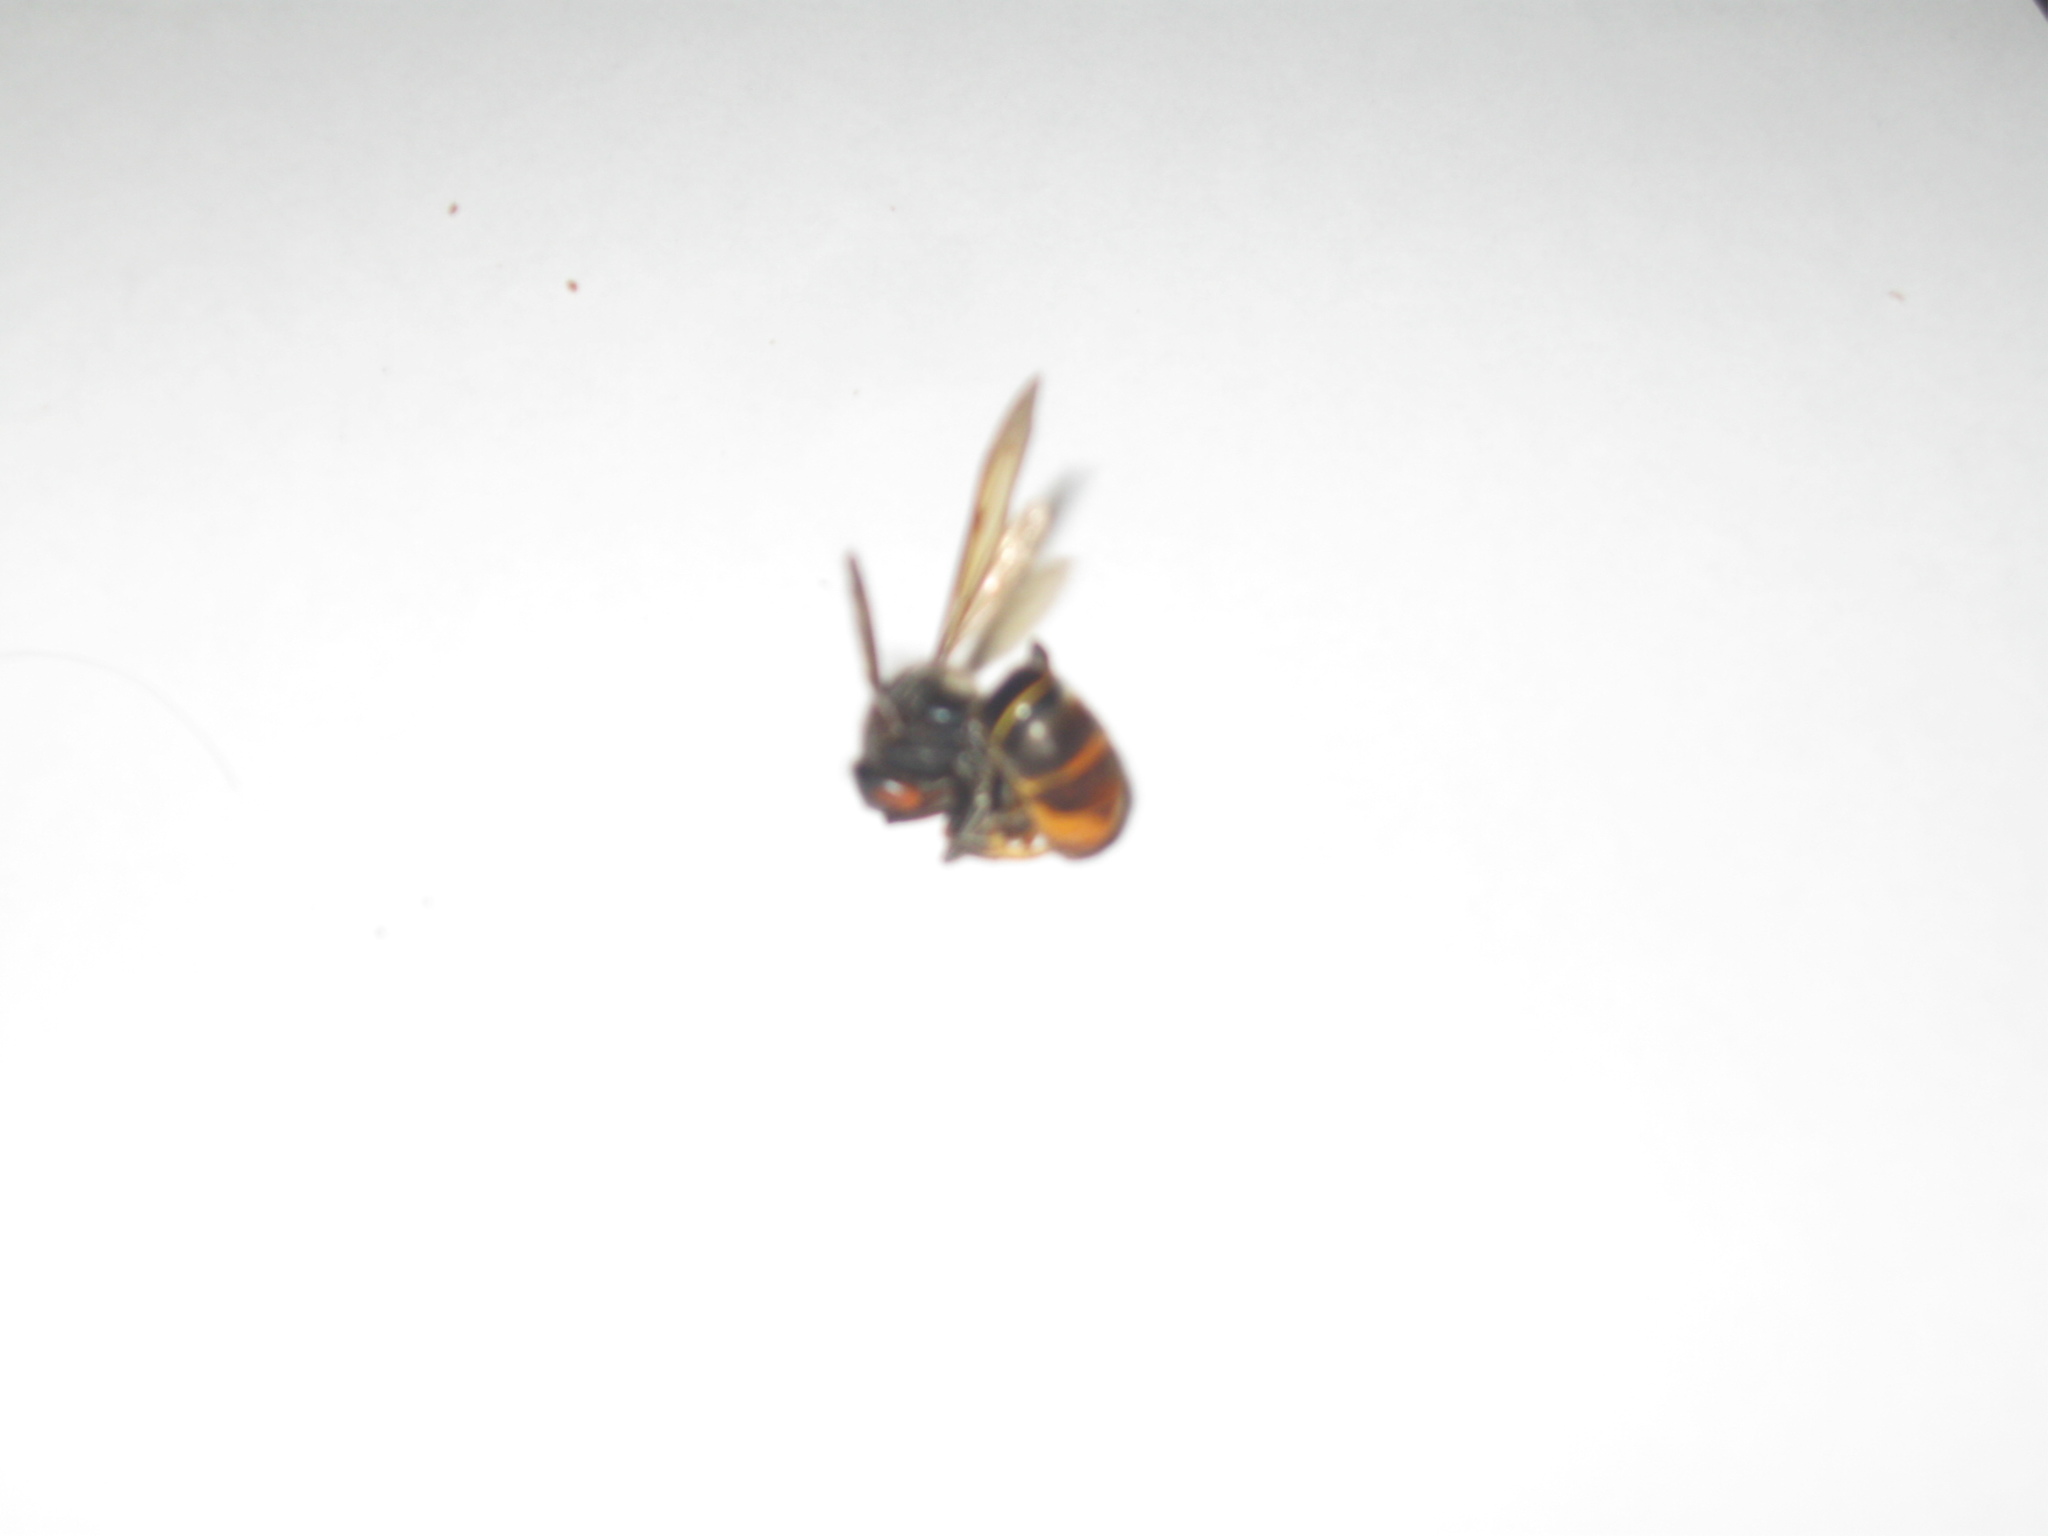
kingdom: Animalia
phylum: Arthropoda
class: Insecta
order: Hymenoptera
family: Vespidae
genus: Vespa
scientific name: Vespa velutina
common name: Asian hornet
